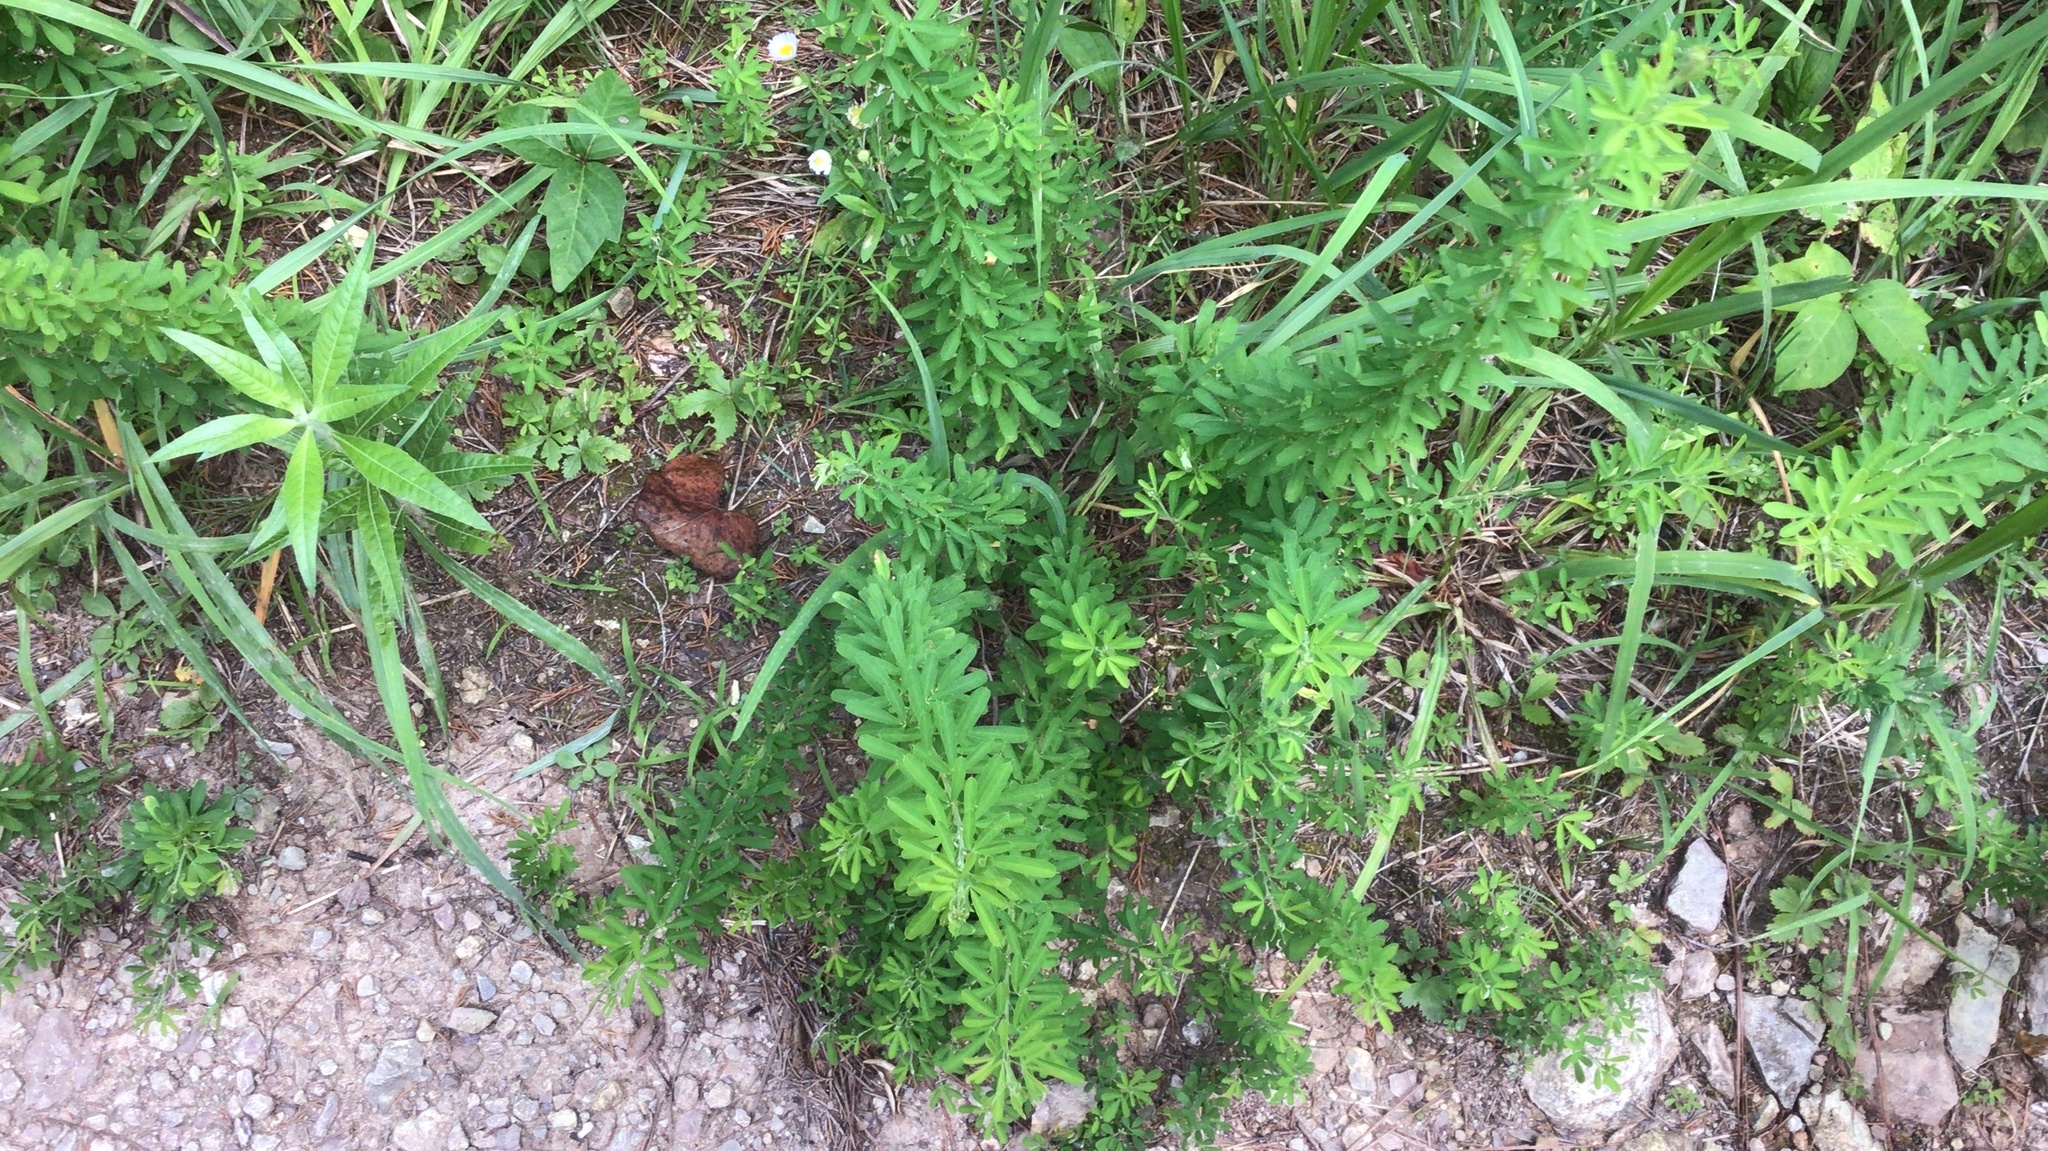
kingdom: Plantae
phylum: Tracheophyta
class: Magnoliopsida
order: Fabales
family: Fabaceae
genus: Lespedeza
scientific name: Lespedeza cuneata
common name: Chinese bush-clover
